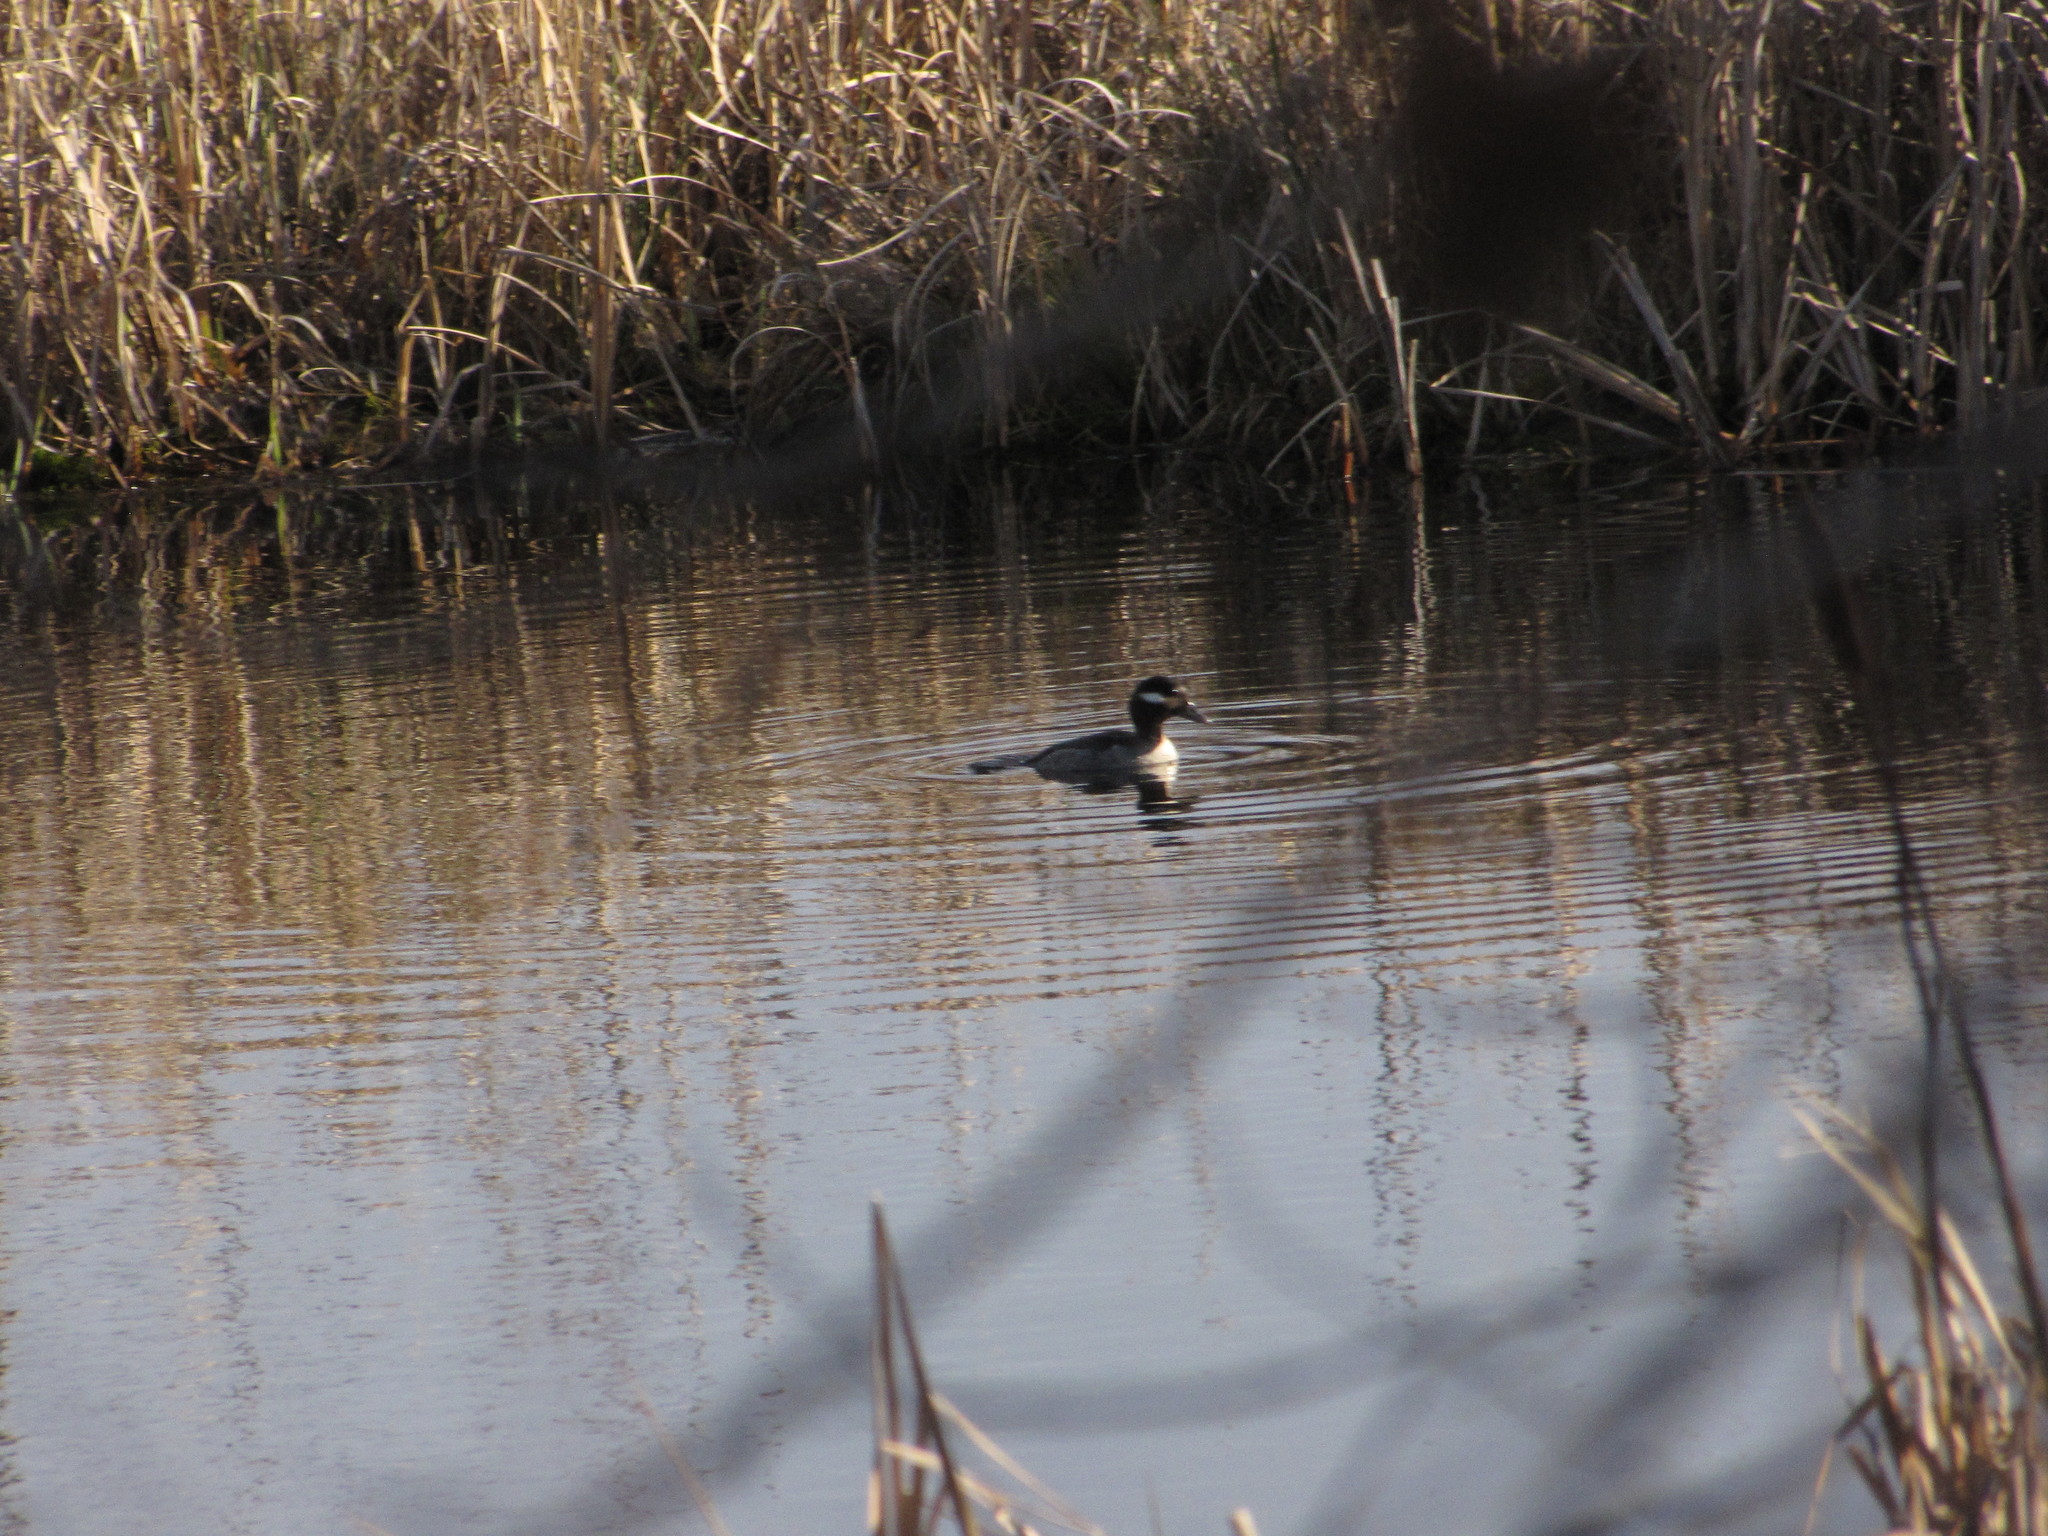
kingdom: Animalia
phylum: Chordata
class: Aves
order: Anseriformes
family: Anatidae
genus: Bucephala
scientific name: Bucephala albeola
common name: Bufflehead
